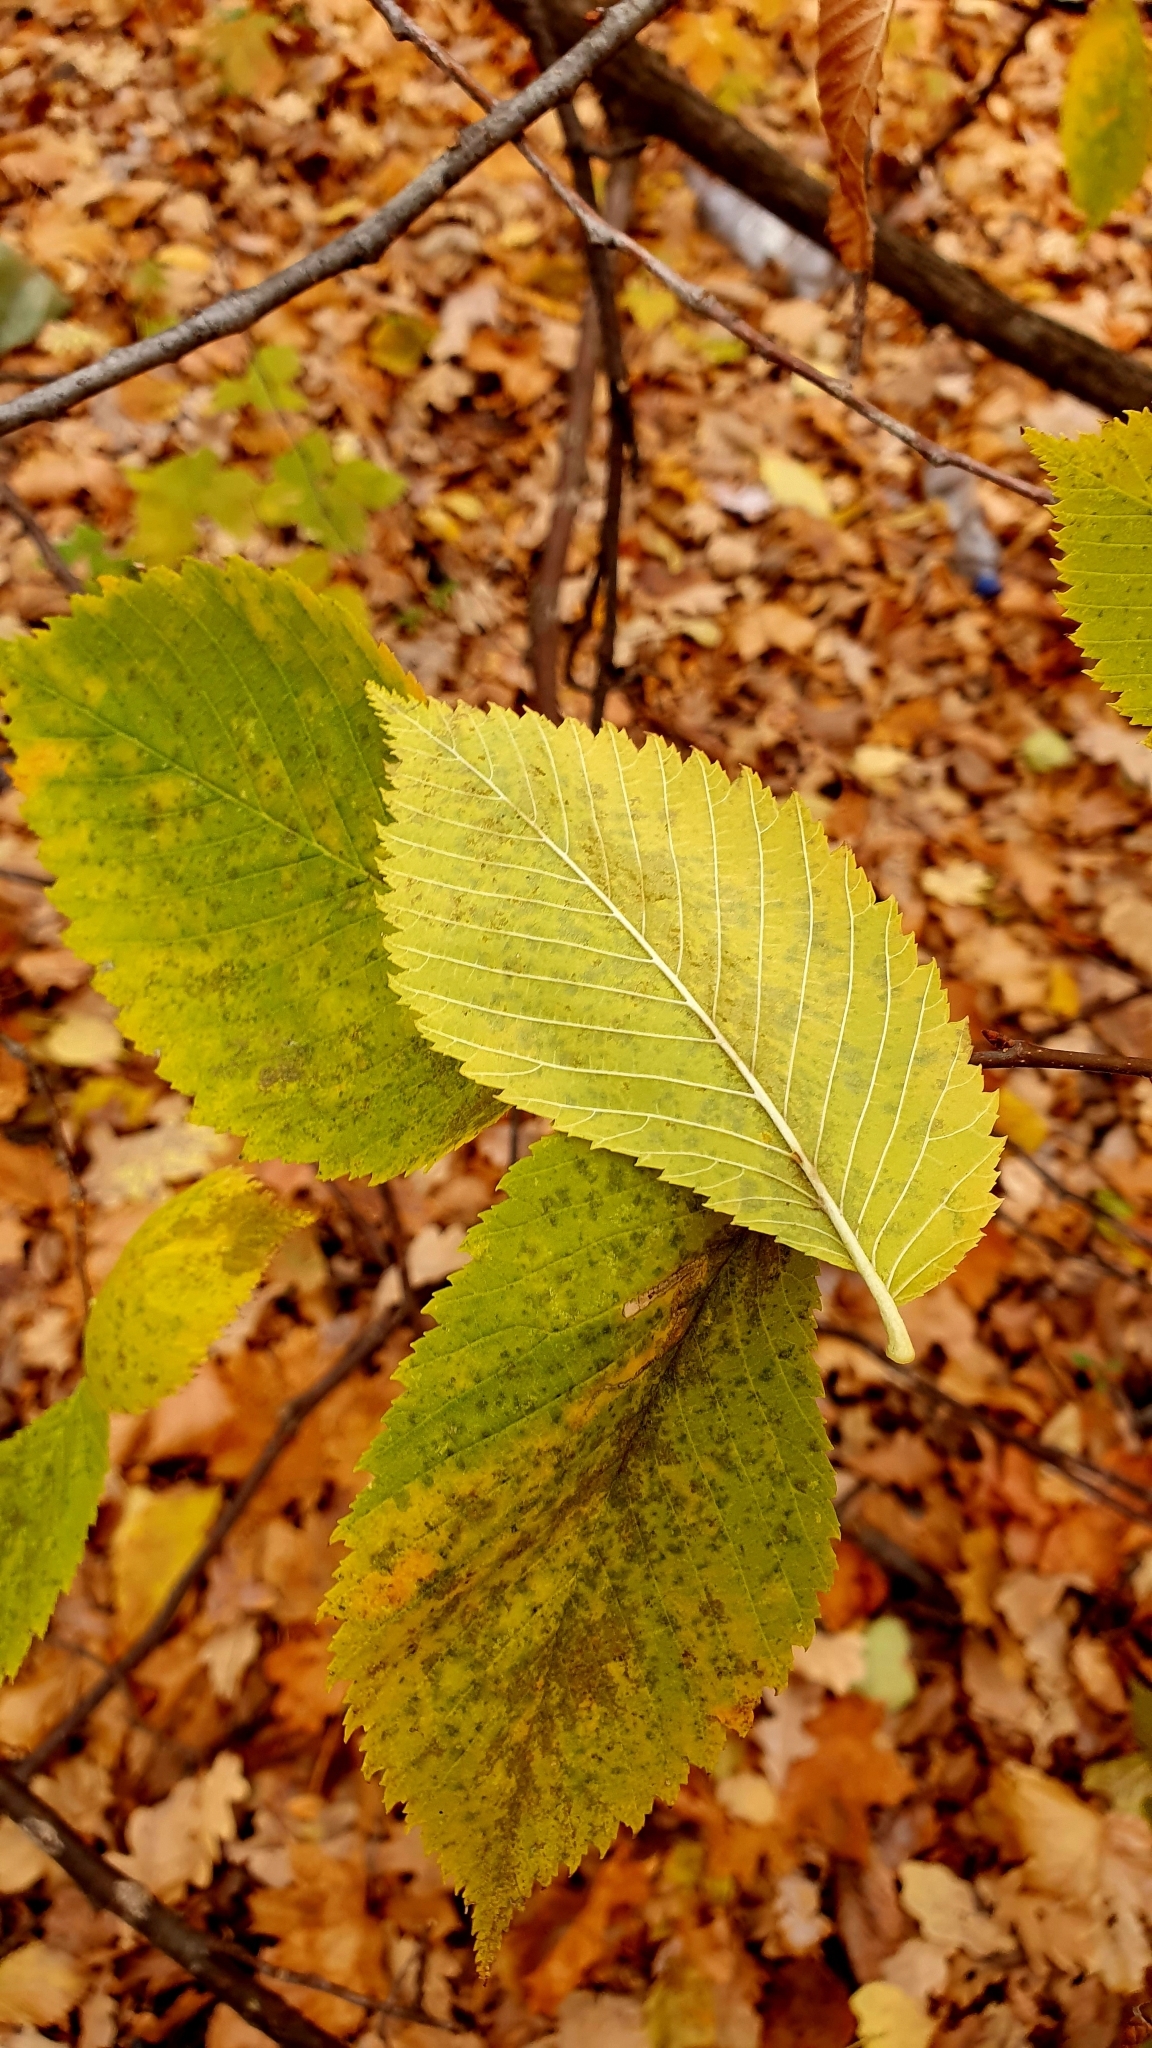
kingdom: Plantae
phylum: Tracheophyta
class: Magnoliopsida
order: Rosales
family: Ulmaceae
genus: Ulmus
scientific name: Ulmus laevis
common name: European white-elm
